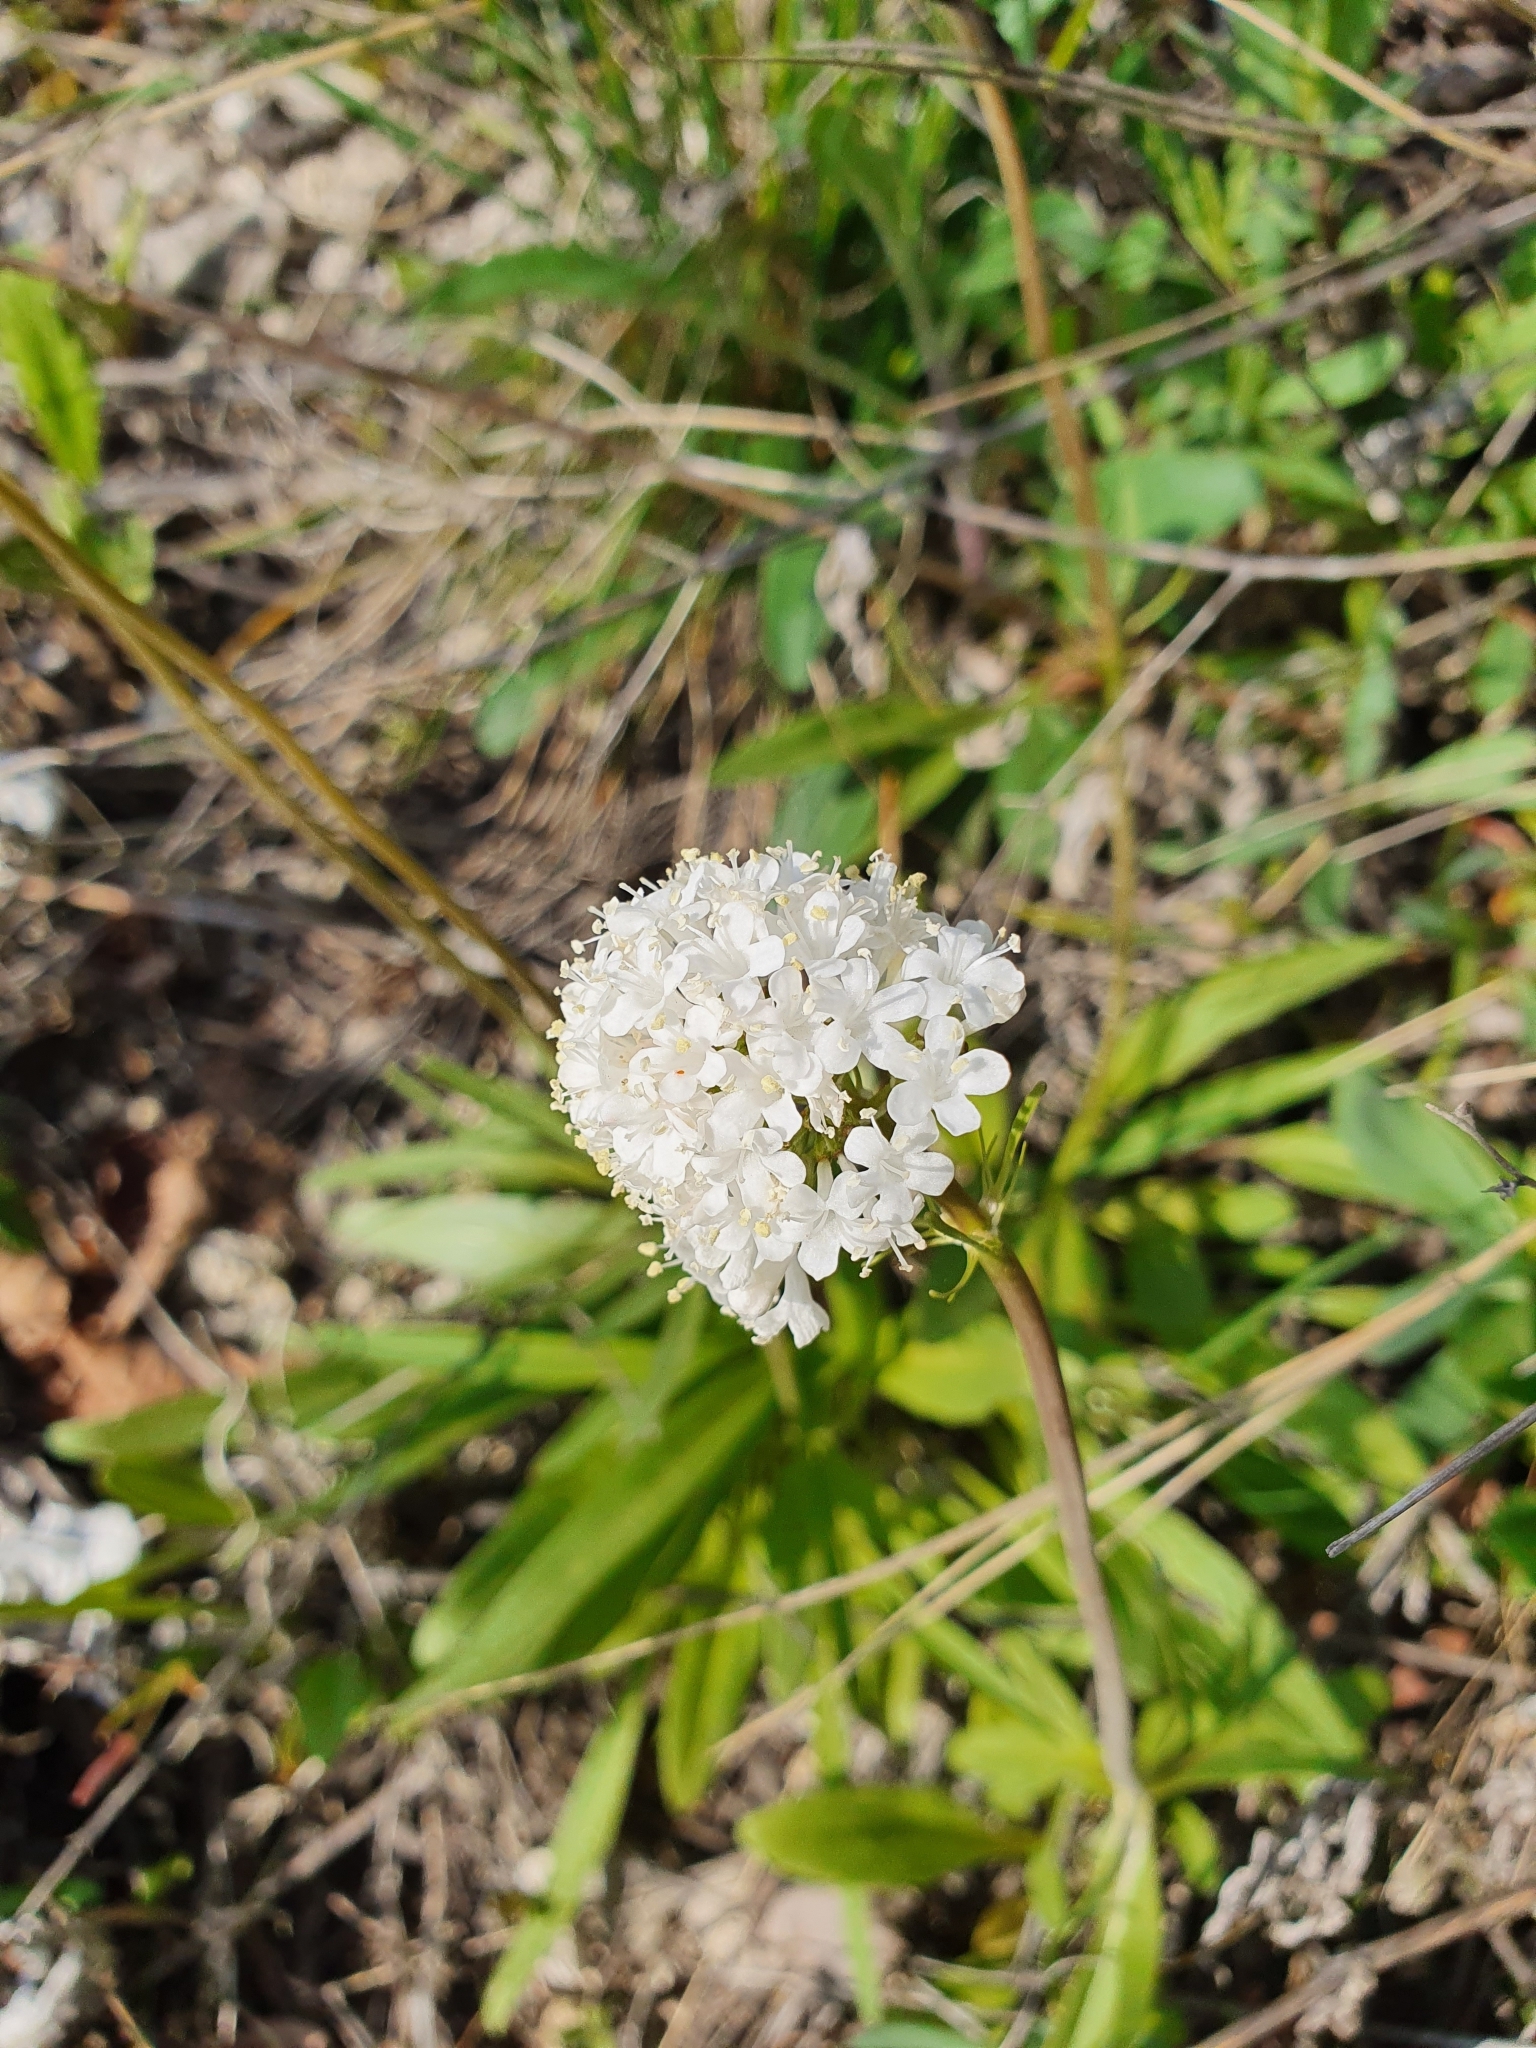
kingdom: Plantae
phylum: Tracheophyta
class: Magnoliopsida
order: Dipsacales
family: Caprifoliaceae
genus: Valeriana
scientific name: Valeriana tuberosa
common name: Tuberous valerian
